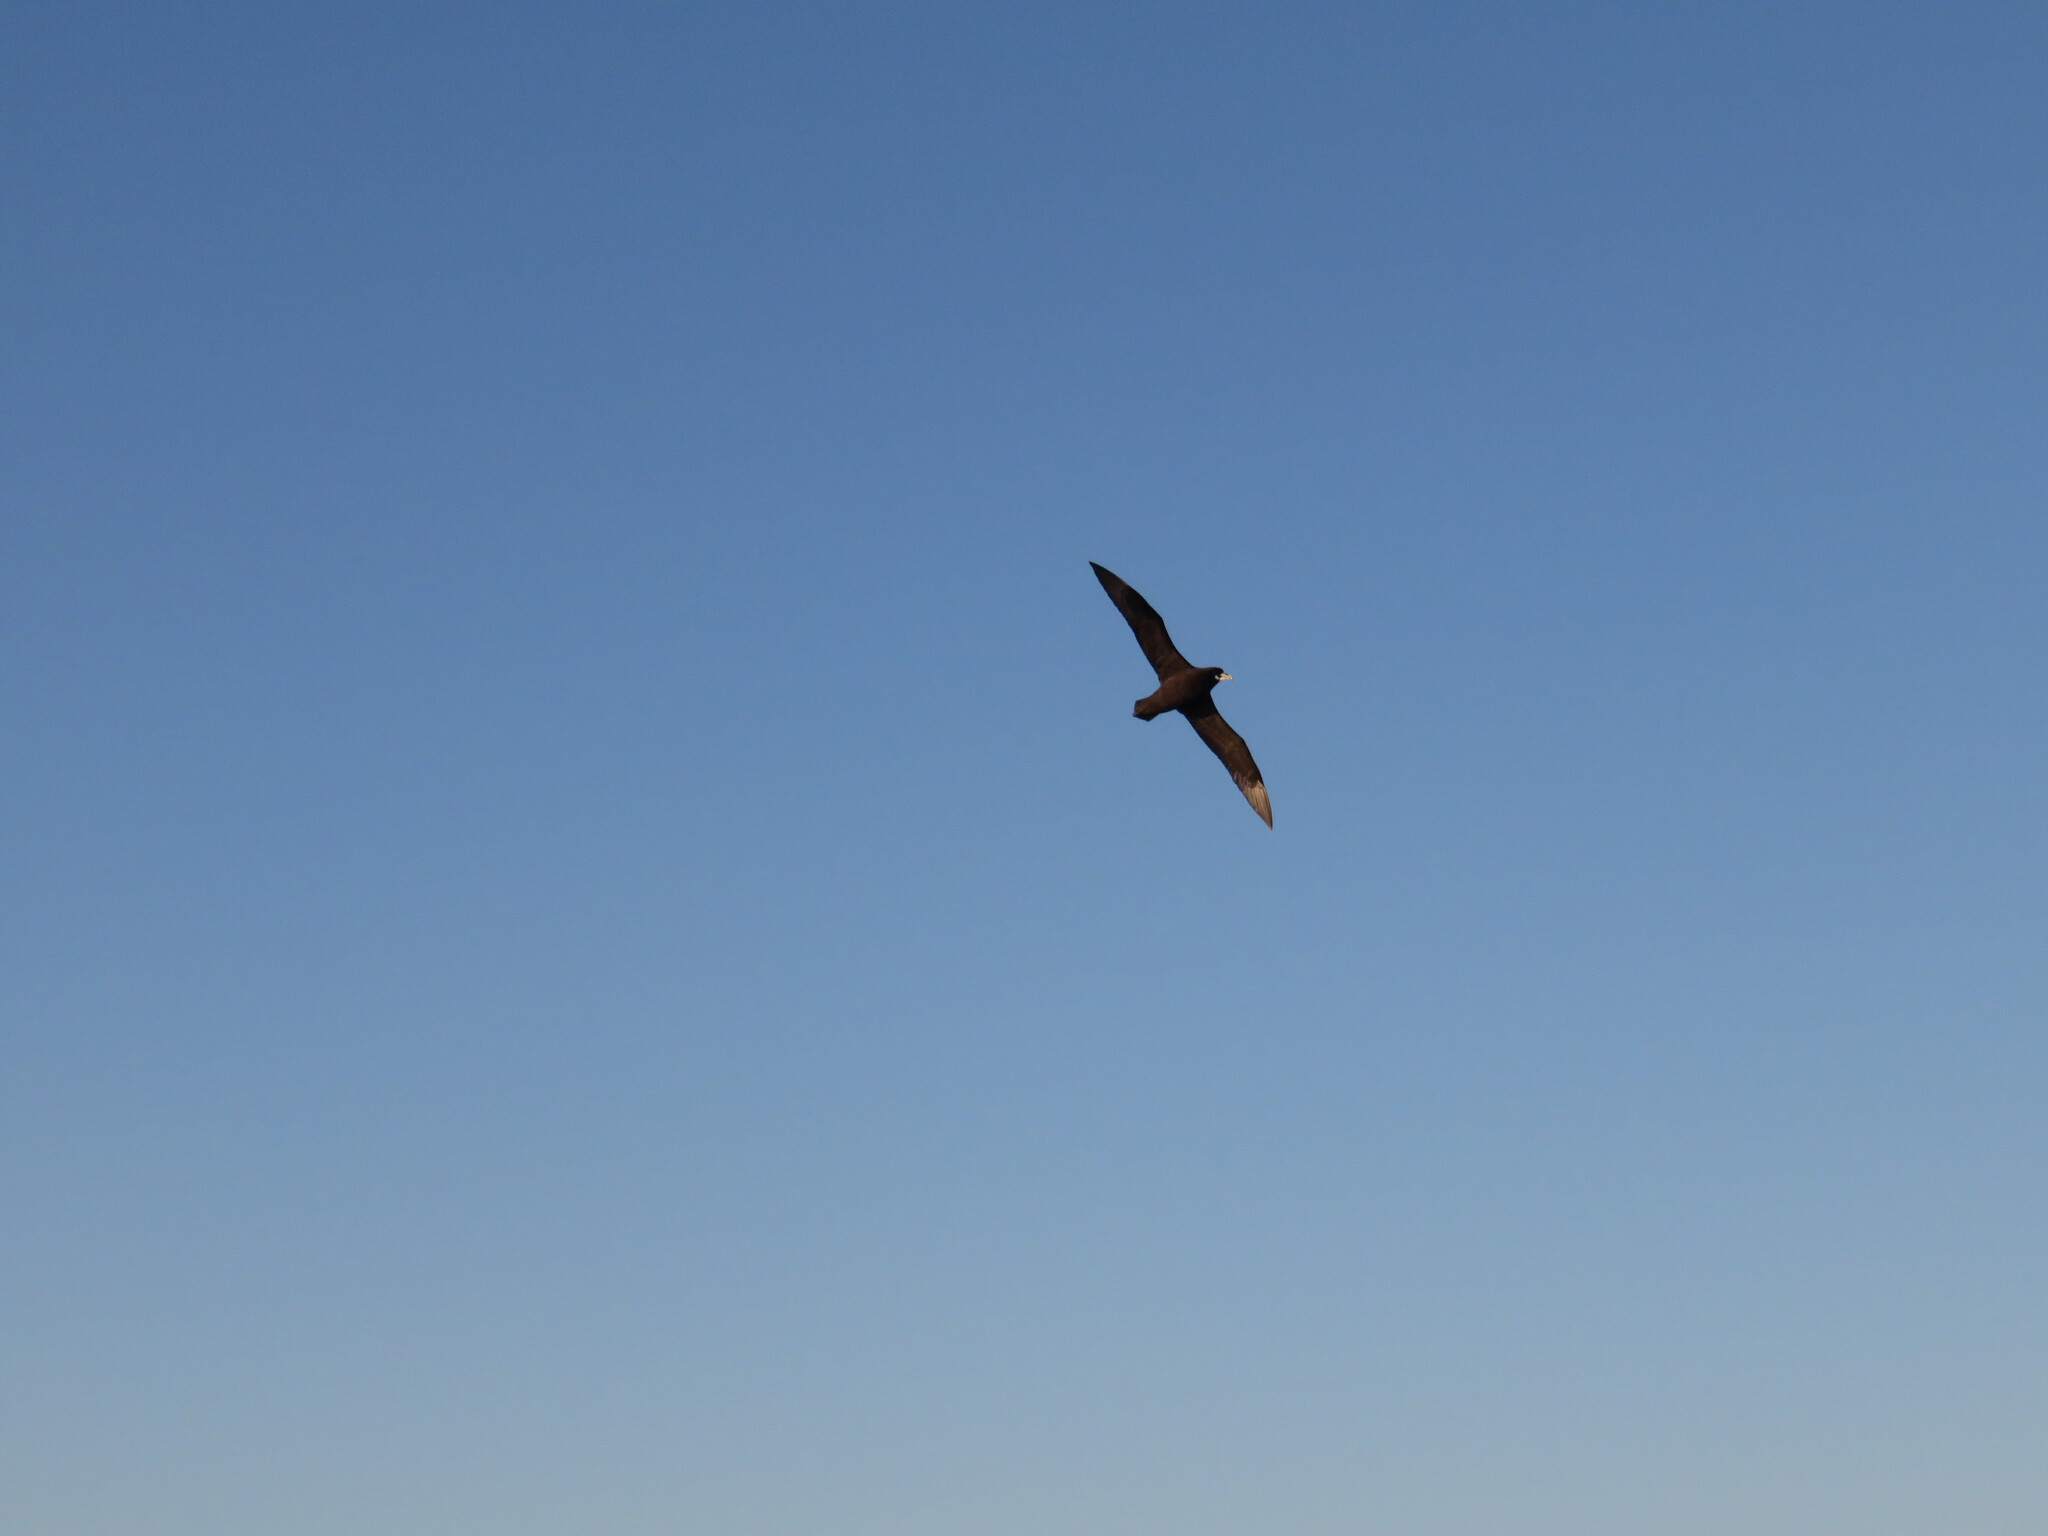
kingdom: Animalia
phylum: Chordata
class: Aves
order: Procellariiformes
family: Procellariidae
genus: Procellaria
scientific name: Procellaria aequinoctialis
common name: White-chinned petrel
